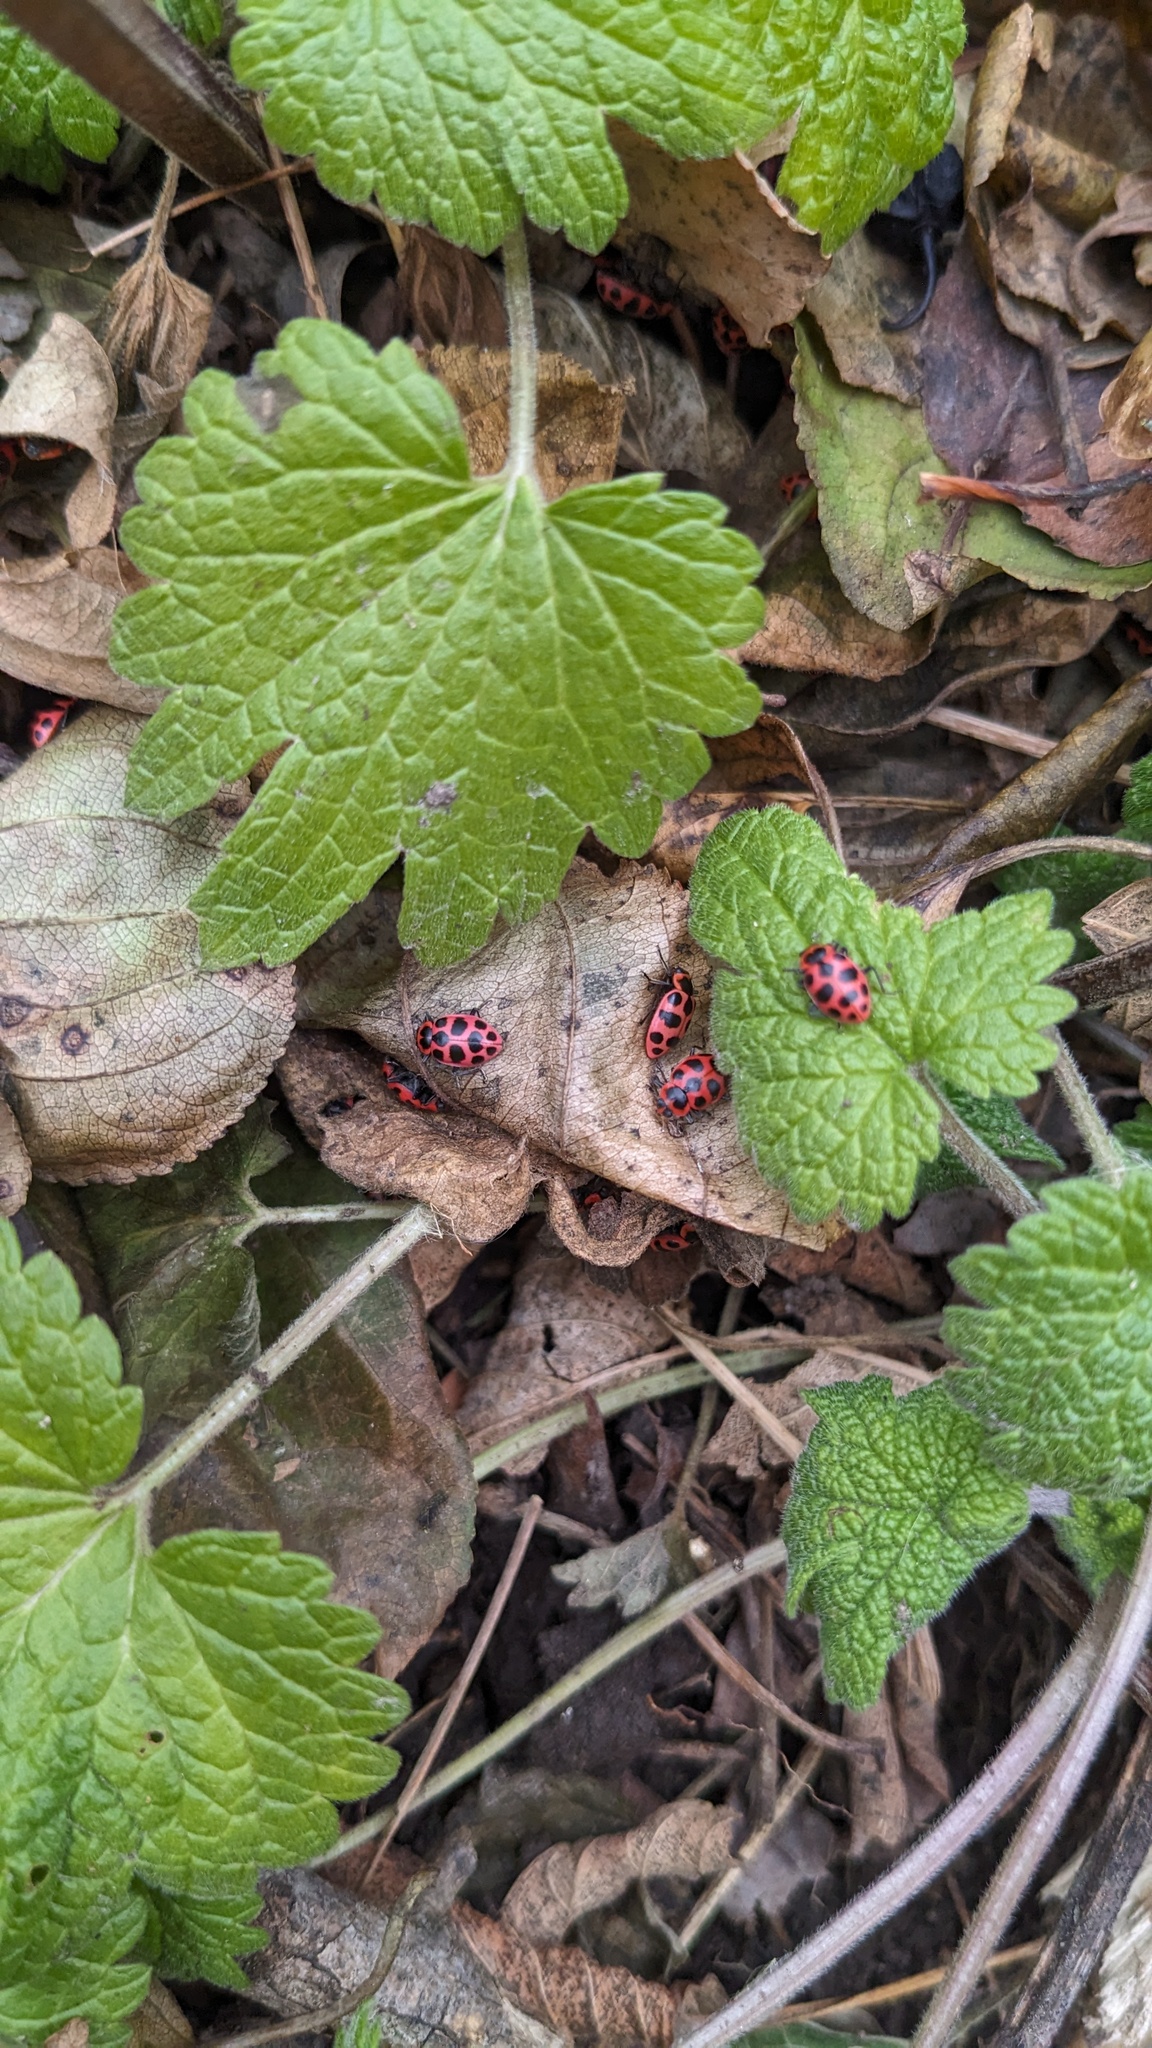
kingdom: Animalia
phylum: Arthropoda
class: Insecta
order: Coleoptera
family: Coccinellidae
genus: Coleomegilla
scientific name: Coleomegilla maculata
